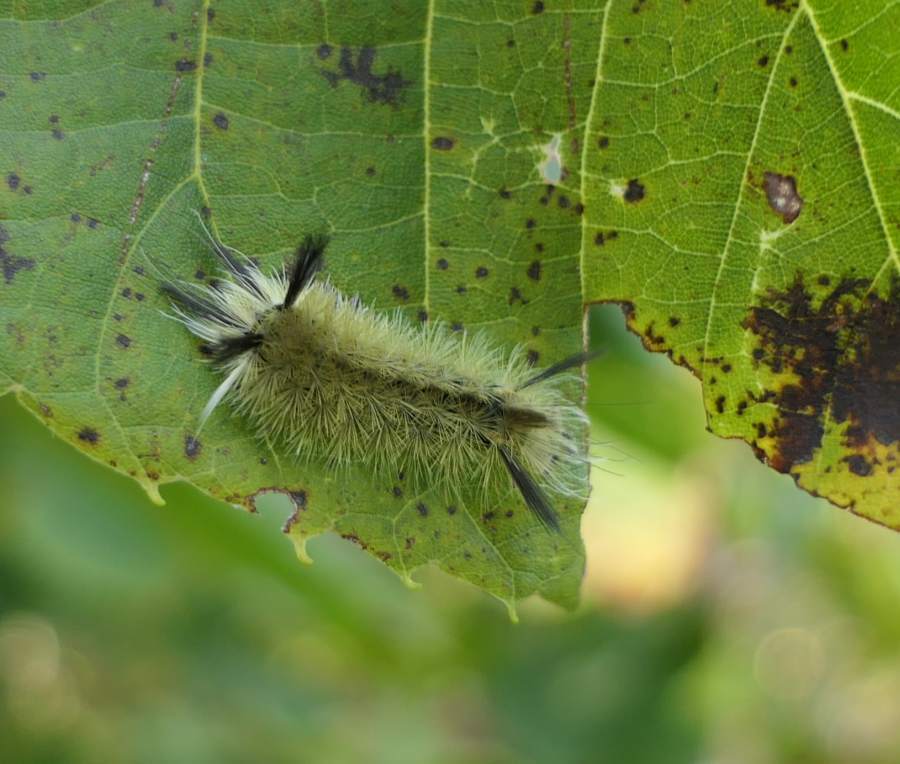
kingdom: Animalia
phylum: Arthropoda
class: Insecta
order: Lepidoptera
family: Erebidae
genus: Halysidota
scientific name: Halysidota tessellaris
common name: Banded tussock moth
